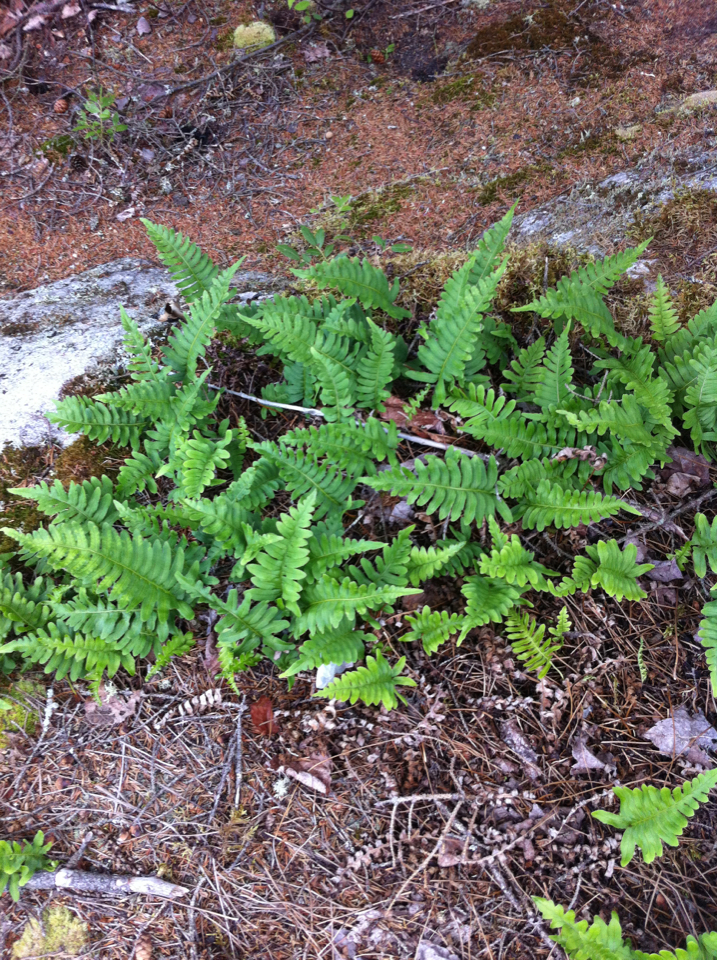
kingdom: Plantae
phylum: Tracheophyta
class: Polypodiopsida
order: Polypodiales
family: Polypodiaceae
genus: Polypodium
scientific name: Polypodium virginianum
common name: American wall fern
